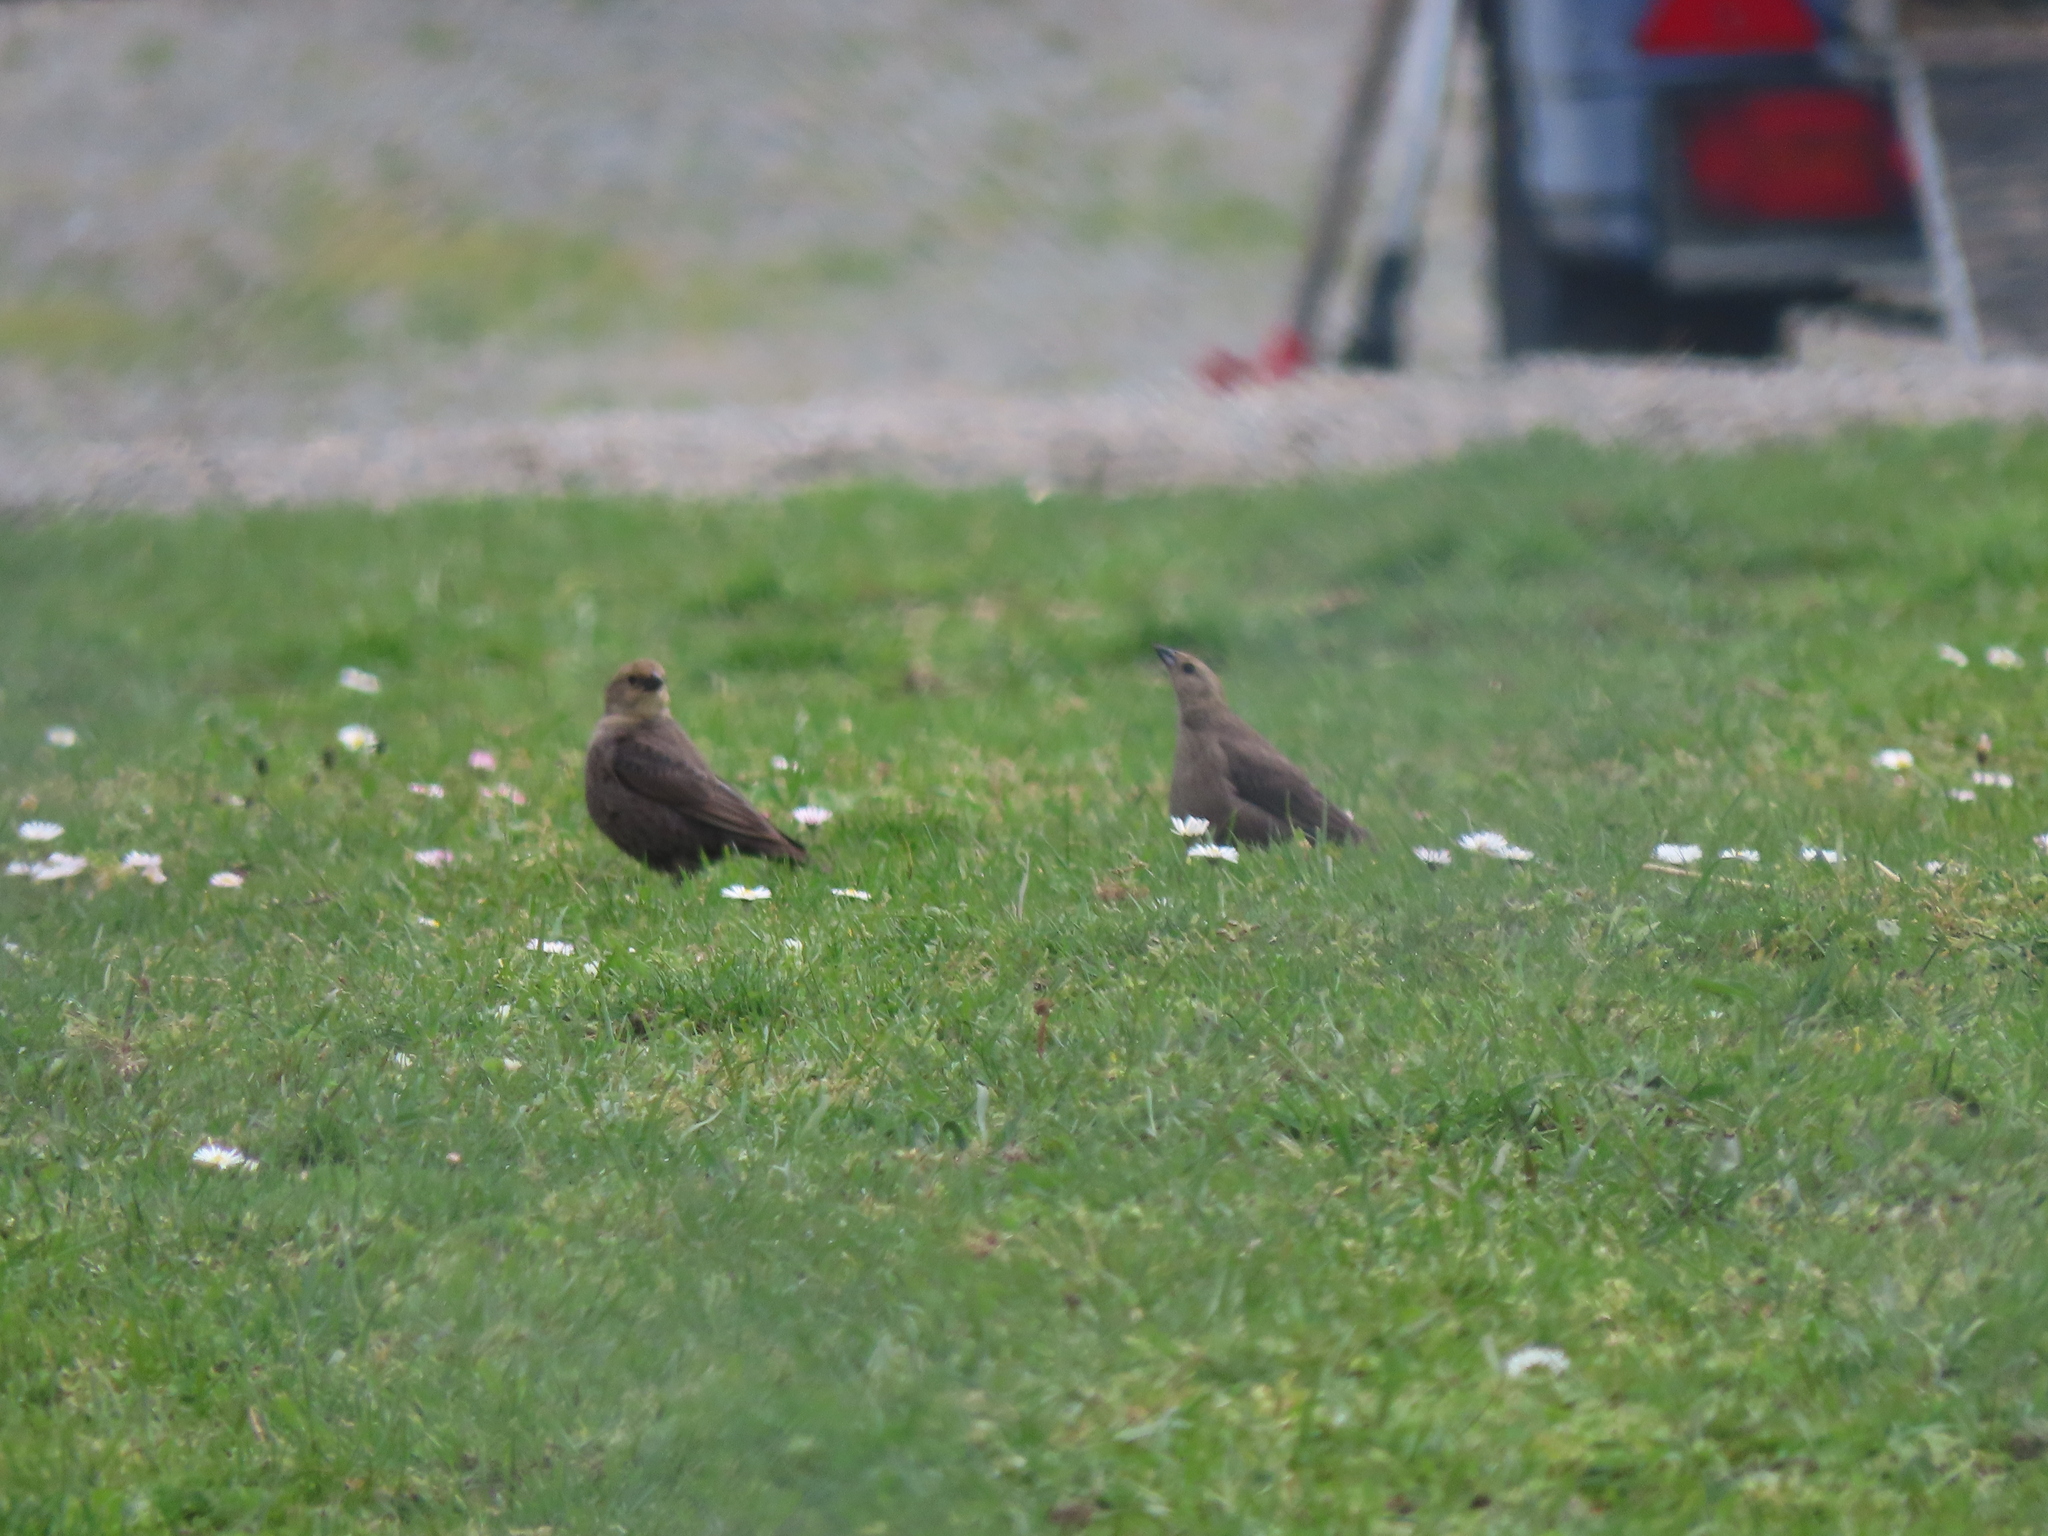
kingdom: Animalia
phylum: Chordata
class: Aves
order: Passeriformes
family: Icteridae
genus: Molothrus
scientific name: Molothrus ater
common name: Brown-headed cowbird
